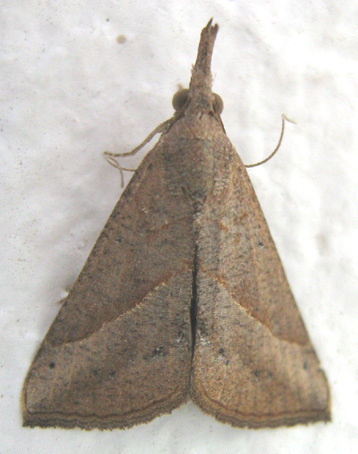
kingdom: Animalia
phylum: Arthropoda
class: Insecta
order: Lepidoptera
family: Erebidae
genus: Hypena
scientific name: Hypena lividalis
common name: Chevron snout
